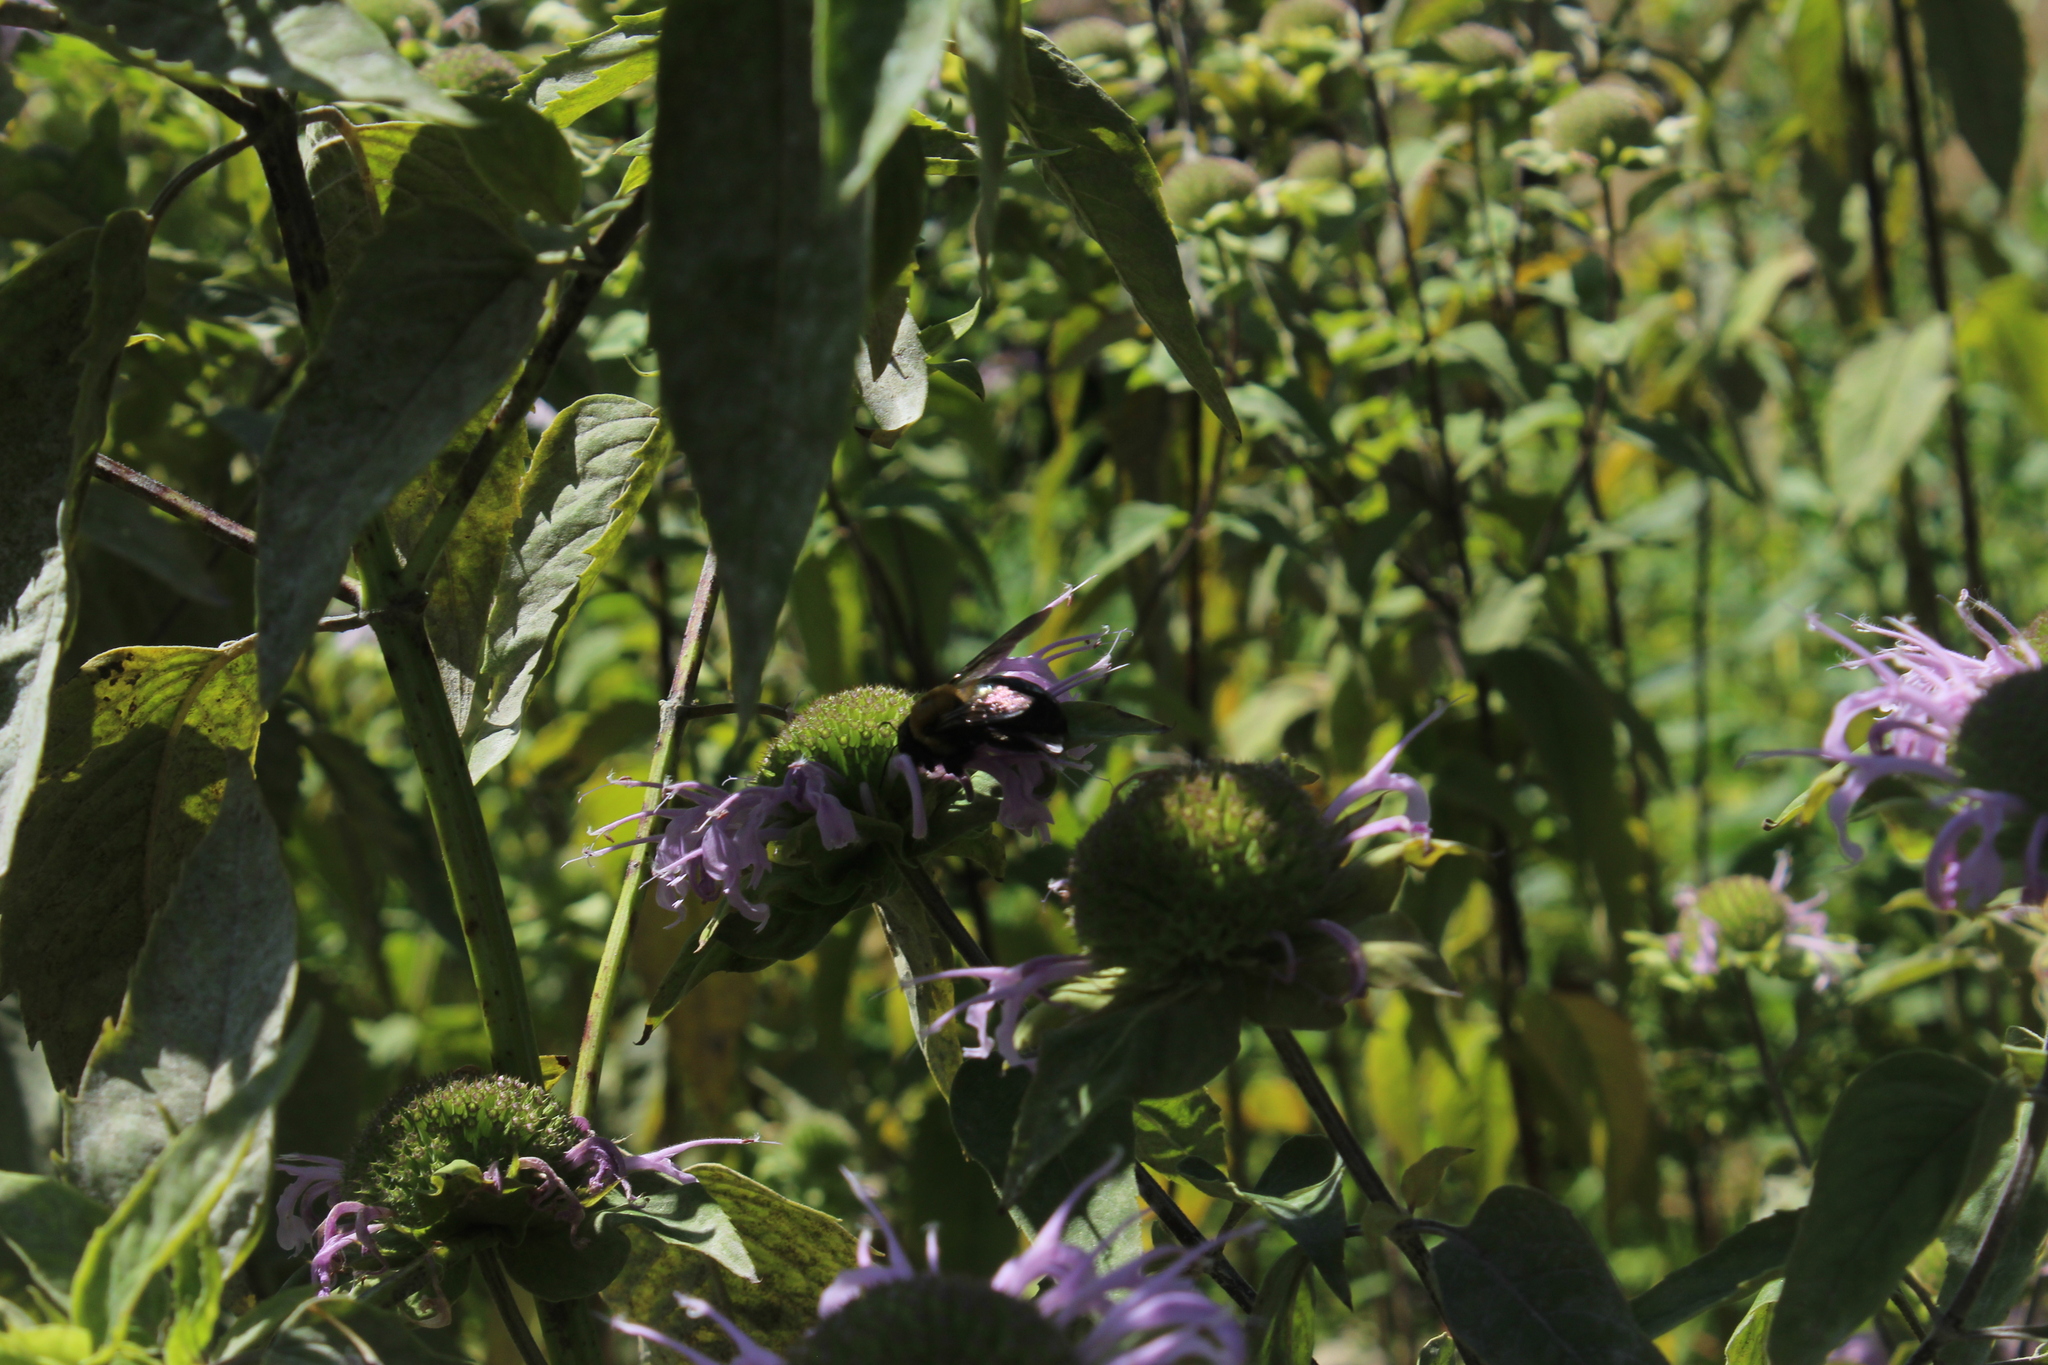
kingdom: Animalia
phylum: Arthropoda
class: Insecta
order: Hymenoptera
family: Apidae
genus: Xylocopa
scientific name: Xylocopa virginica
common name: Carpenter bee
